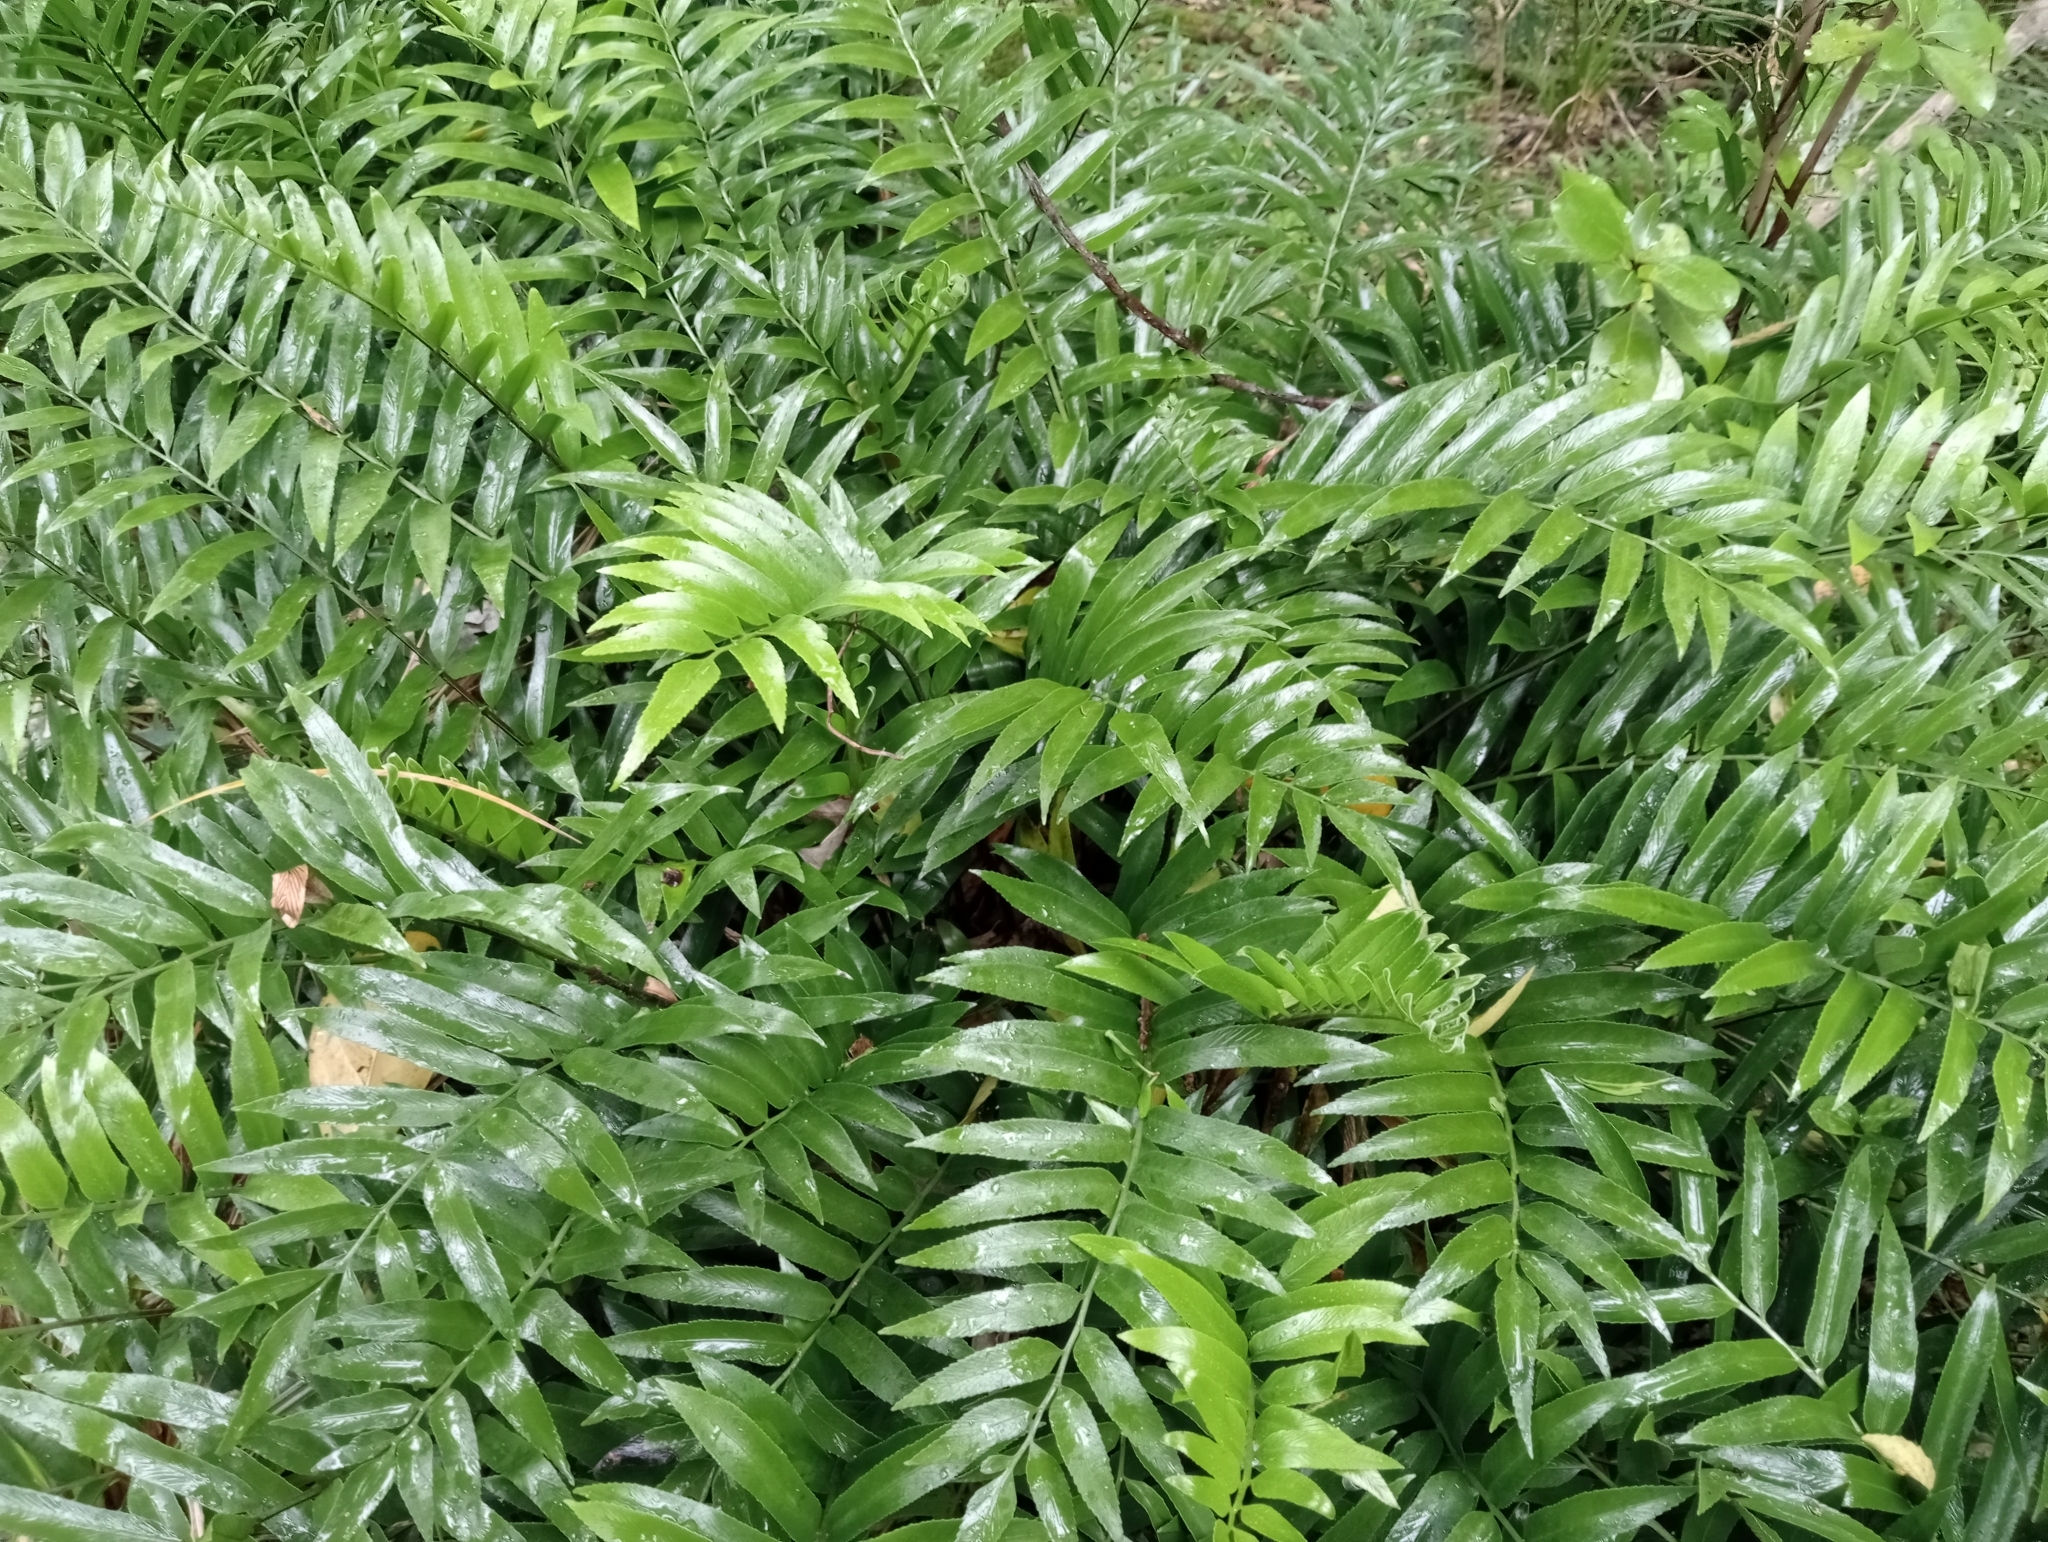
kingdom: Plantae
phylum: Tracheophyta
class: Polypodiopsida
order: Polypodiales
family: Aspleniaceae
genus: Asplenium
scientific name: Asplenium oblongifolium
